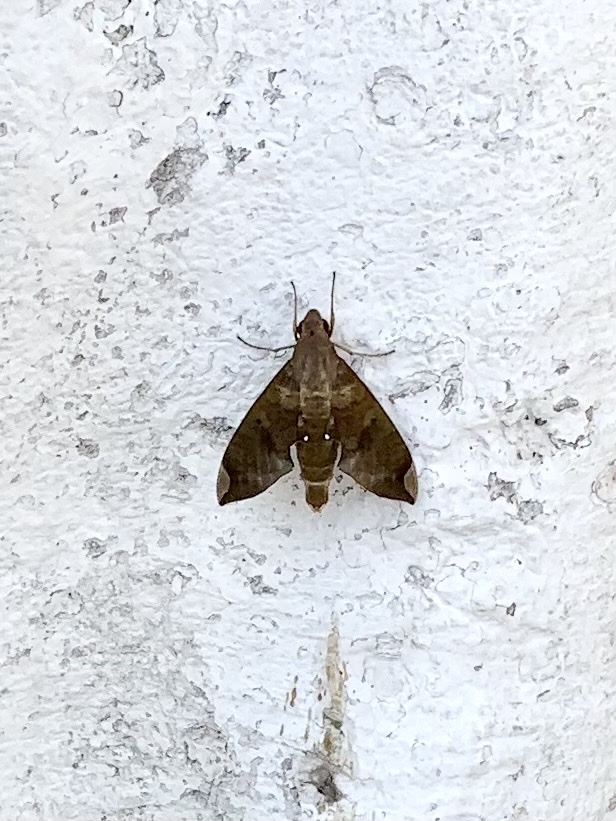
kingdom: Animalia
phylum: Arthropoda
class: Insecta
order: Lepidoptera
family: Sphingidae
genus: Pachylia
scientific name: Pachylia ficus
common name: Fig sphinx
